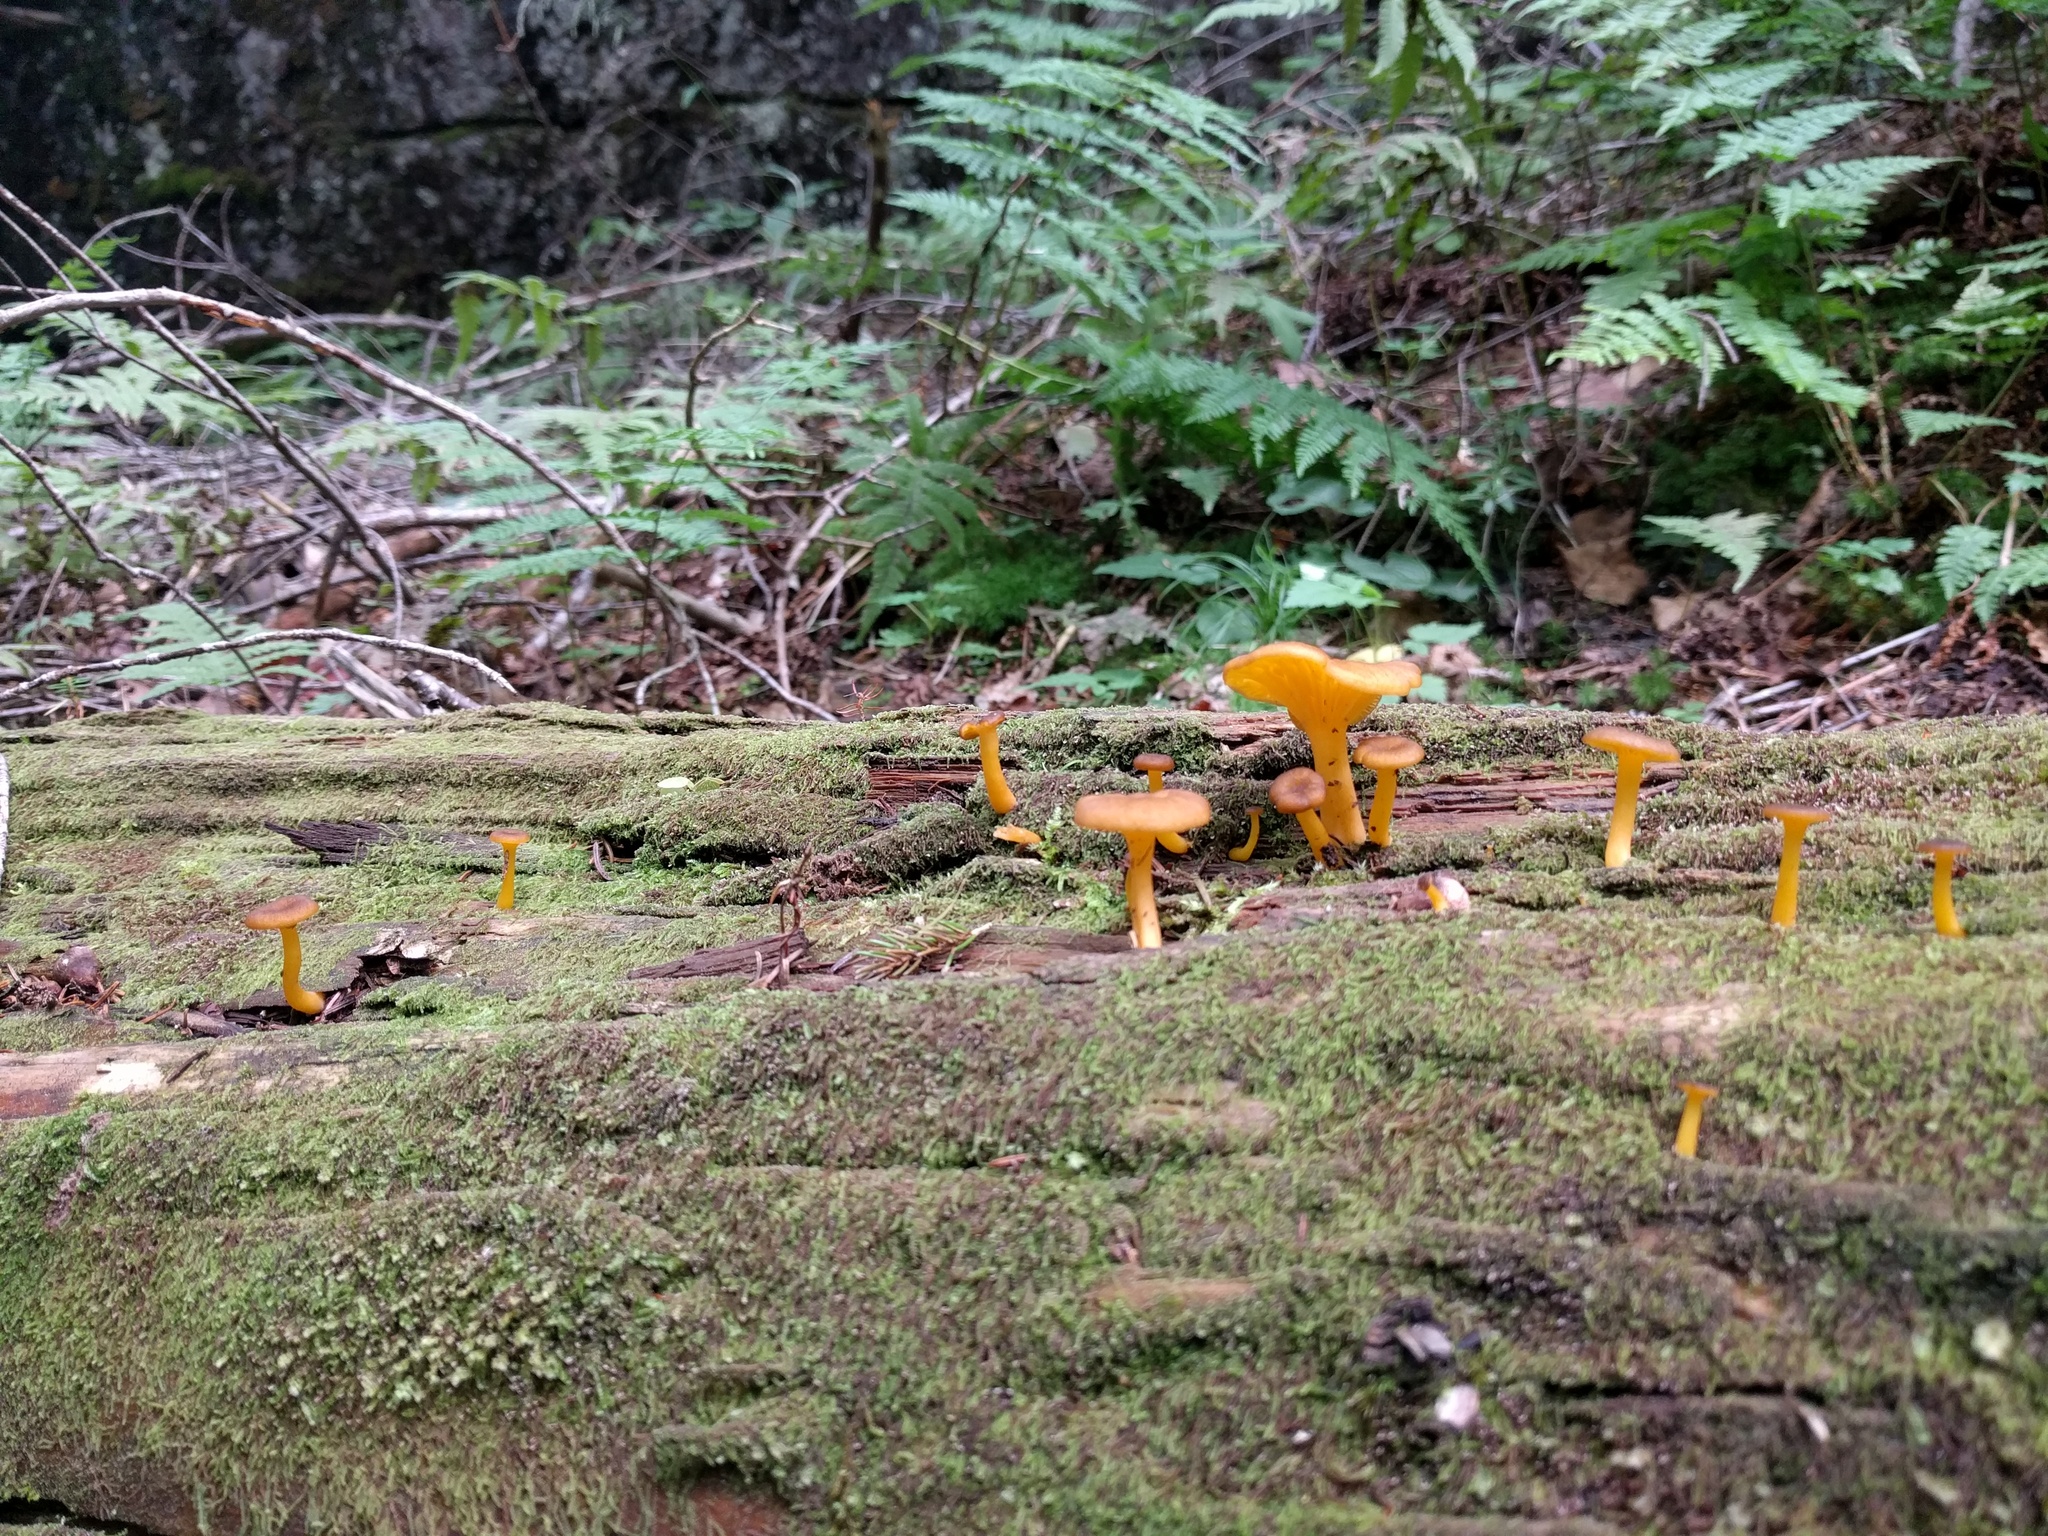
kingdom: Fungi
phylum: Basidiomycota
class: Agaricomycetes
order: Cantharellales
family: Hydnaceae
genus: Craterellus
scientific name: Craterellus tubaeformis
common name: Yellowfoot
